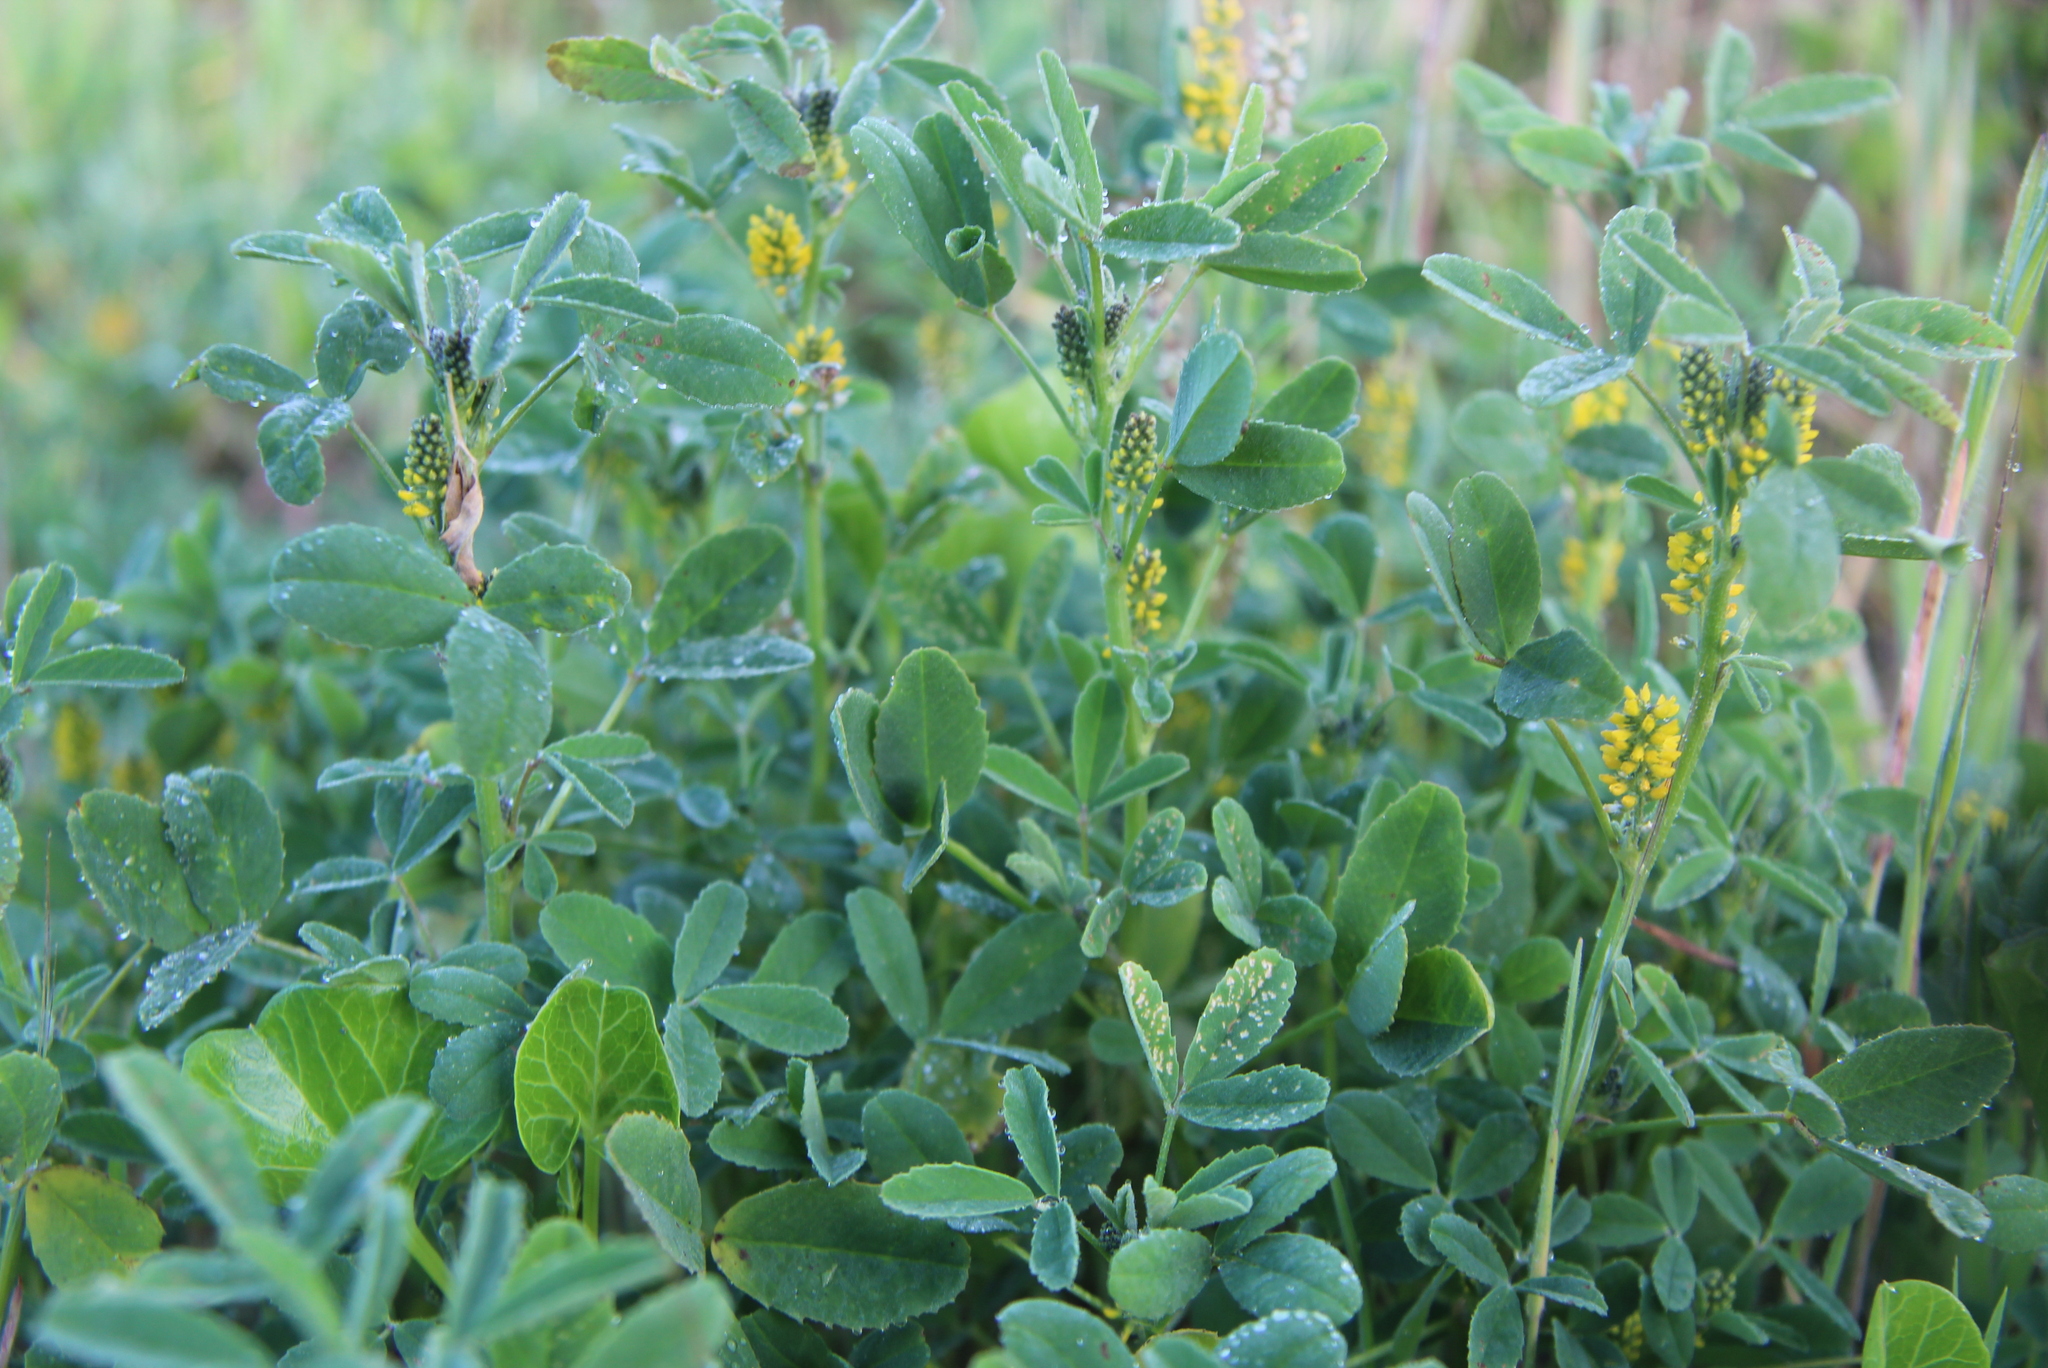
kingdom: Plantae
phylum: Tracheophyta
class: Magnoliopsida
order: Fabales
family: Fabaceae
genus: Melilotus
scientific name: Melilotus indicus
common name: Small melilot
